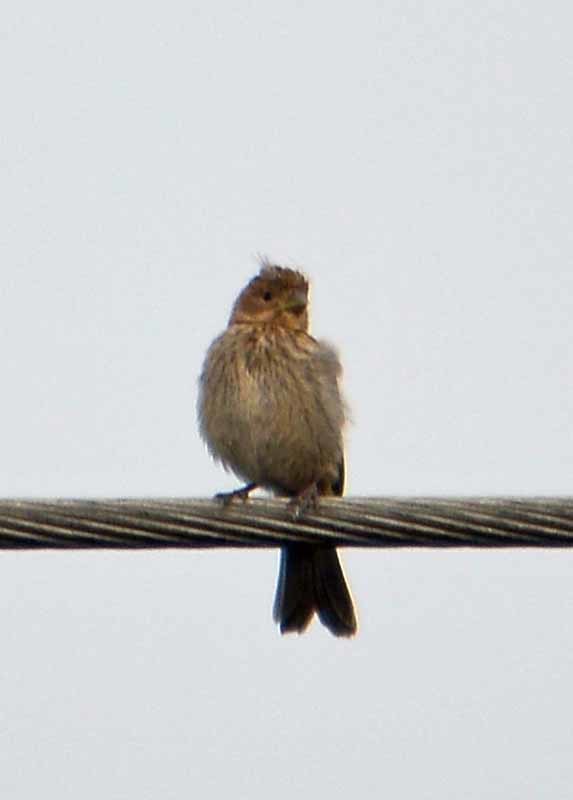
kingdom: Animalia
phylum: Chordata
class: Aves
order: Passeriformes
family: Fringillidae
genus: Haemorhous
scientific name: Haemorhous mexicanus
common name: House finch
